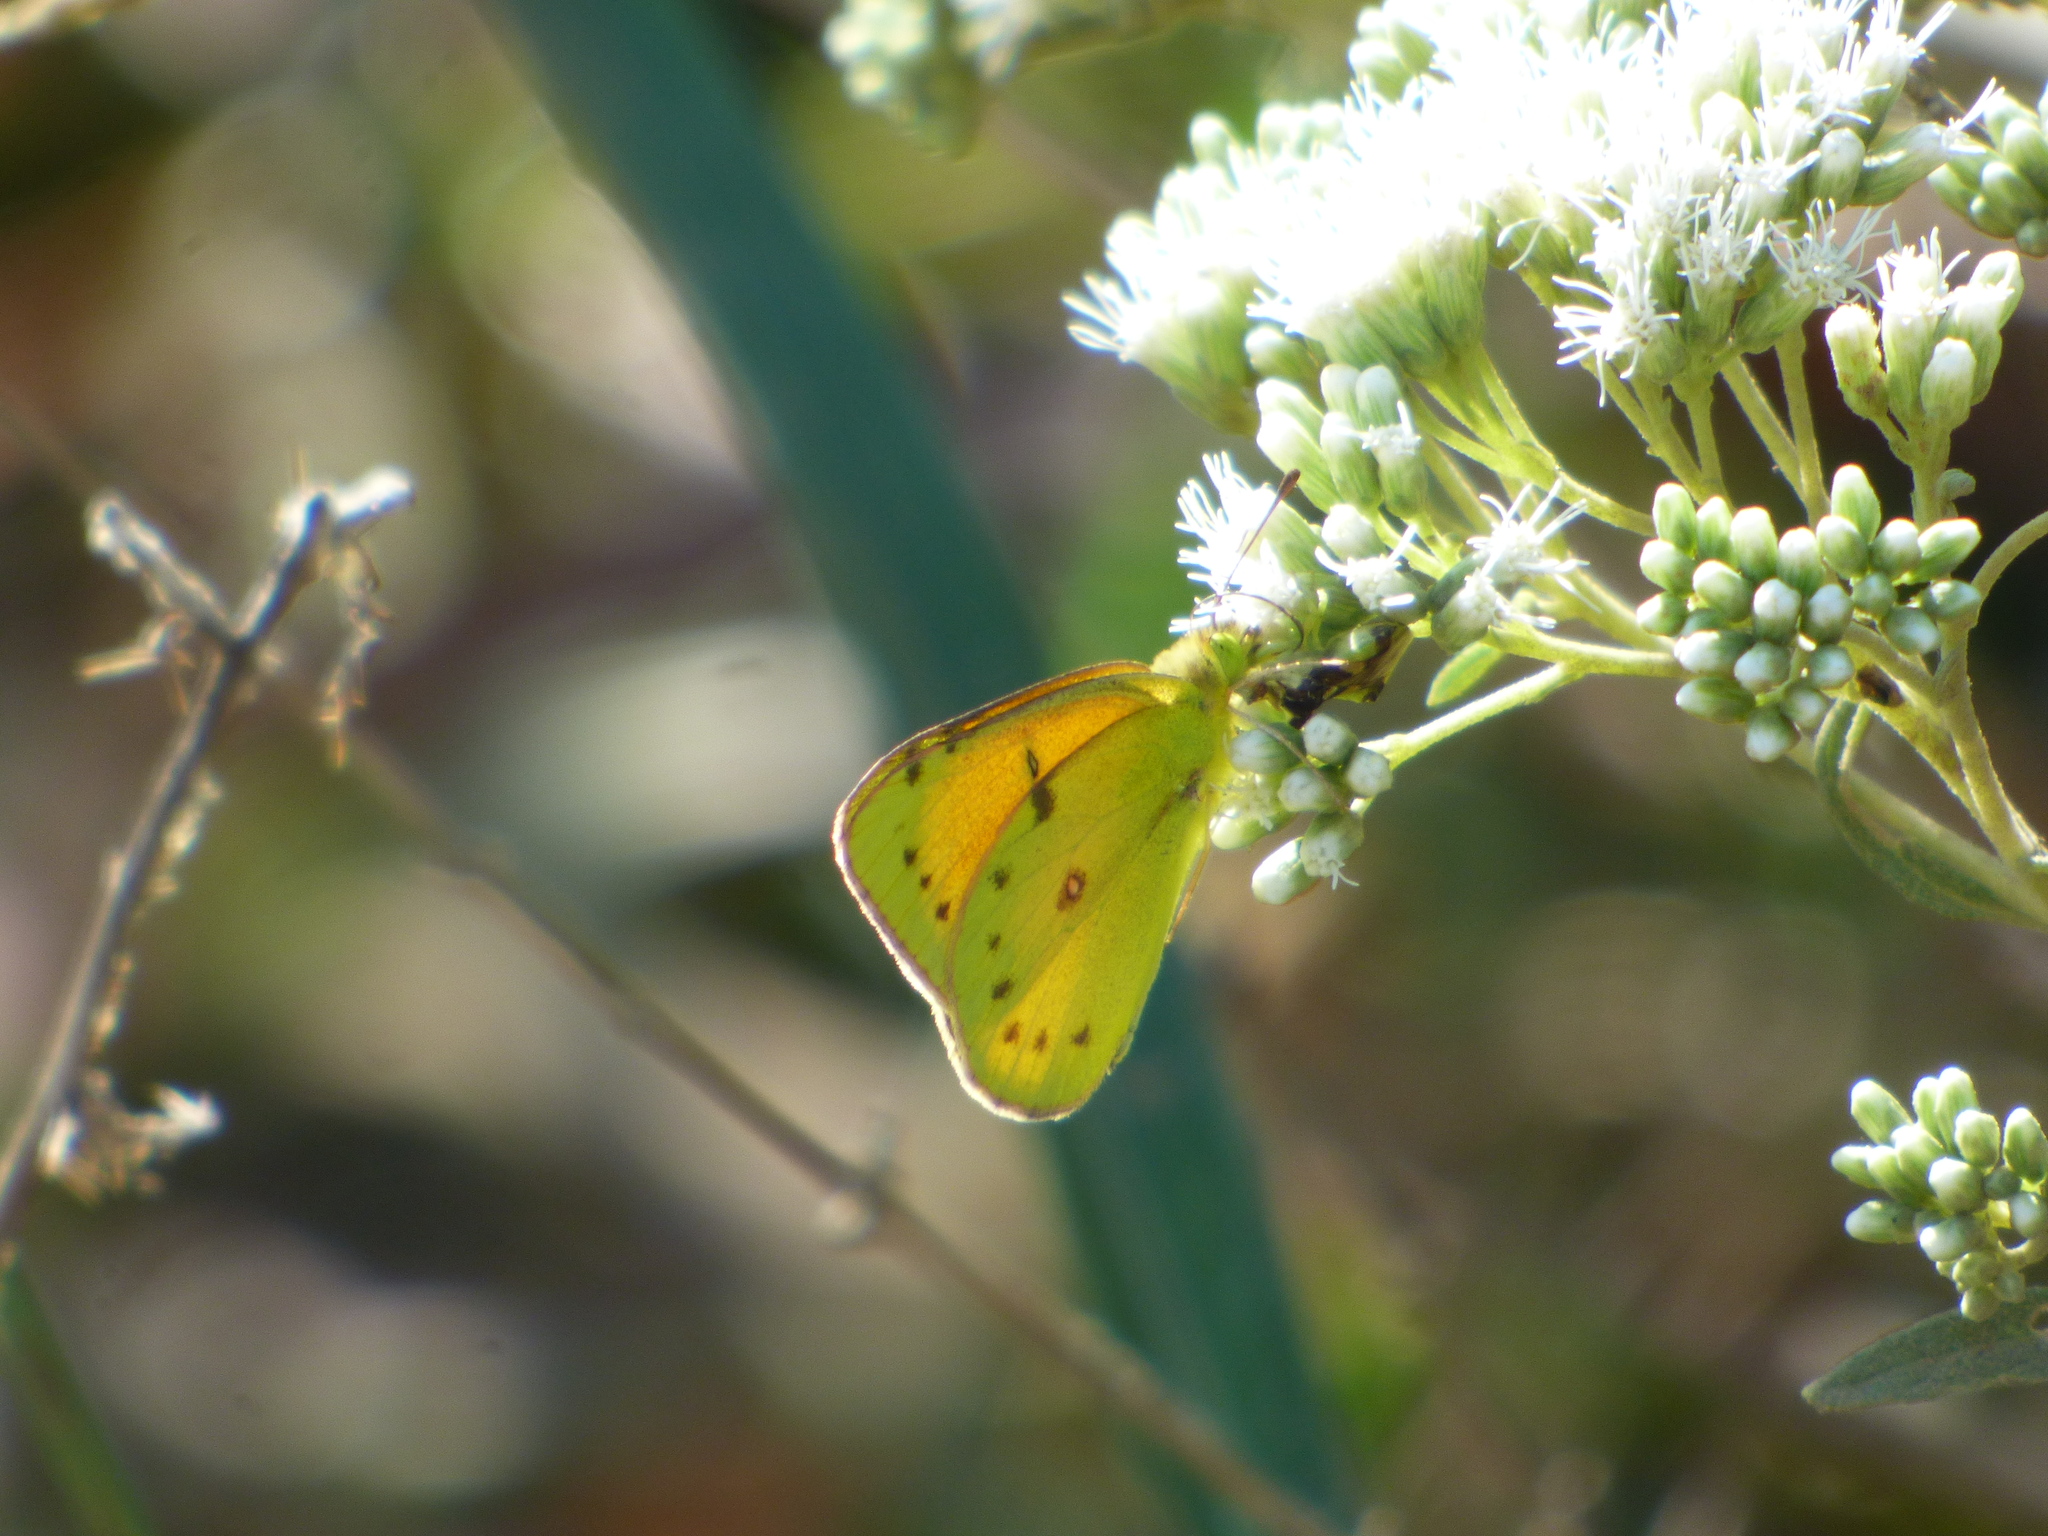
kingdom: Animalia
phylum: Arthropoda
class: Insecta
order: Lepidoptera
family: Pieridae
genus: Colias
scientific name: Colias lesbia
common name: Lesbia clouded yellow
